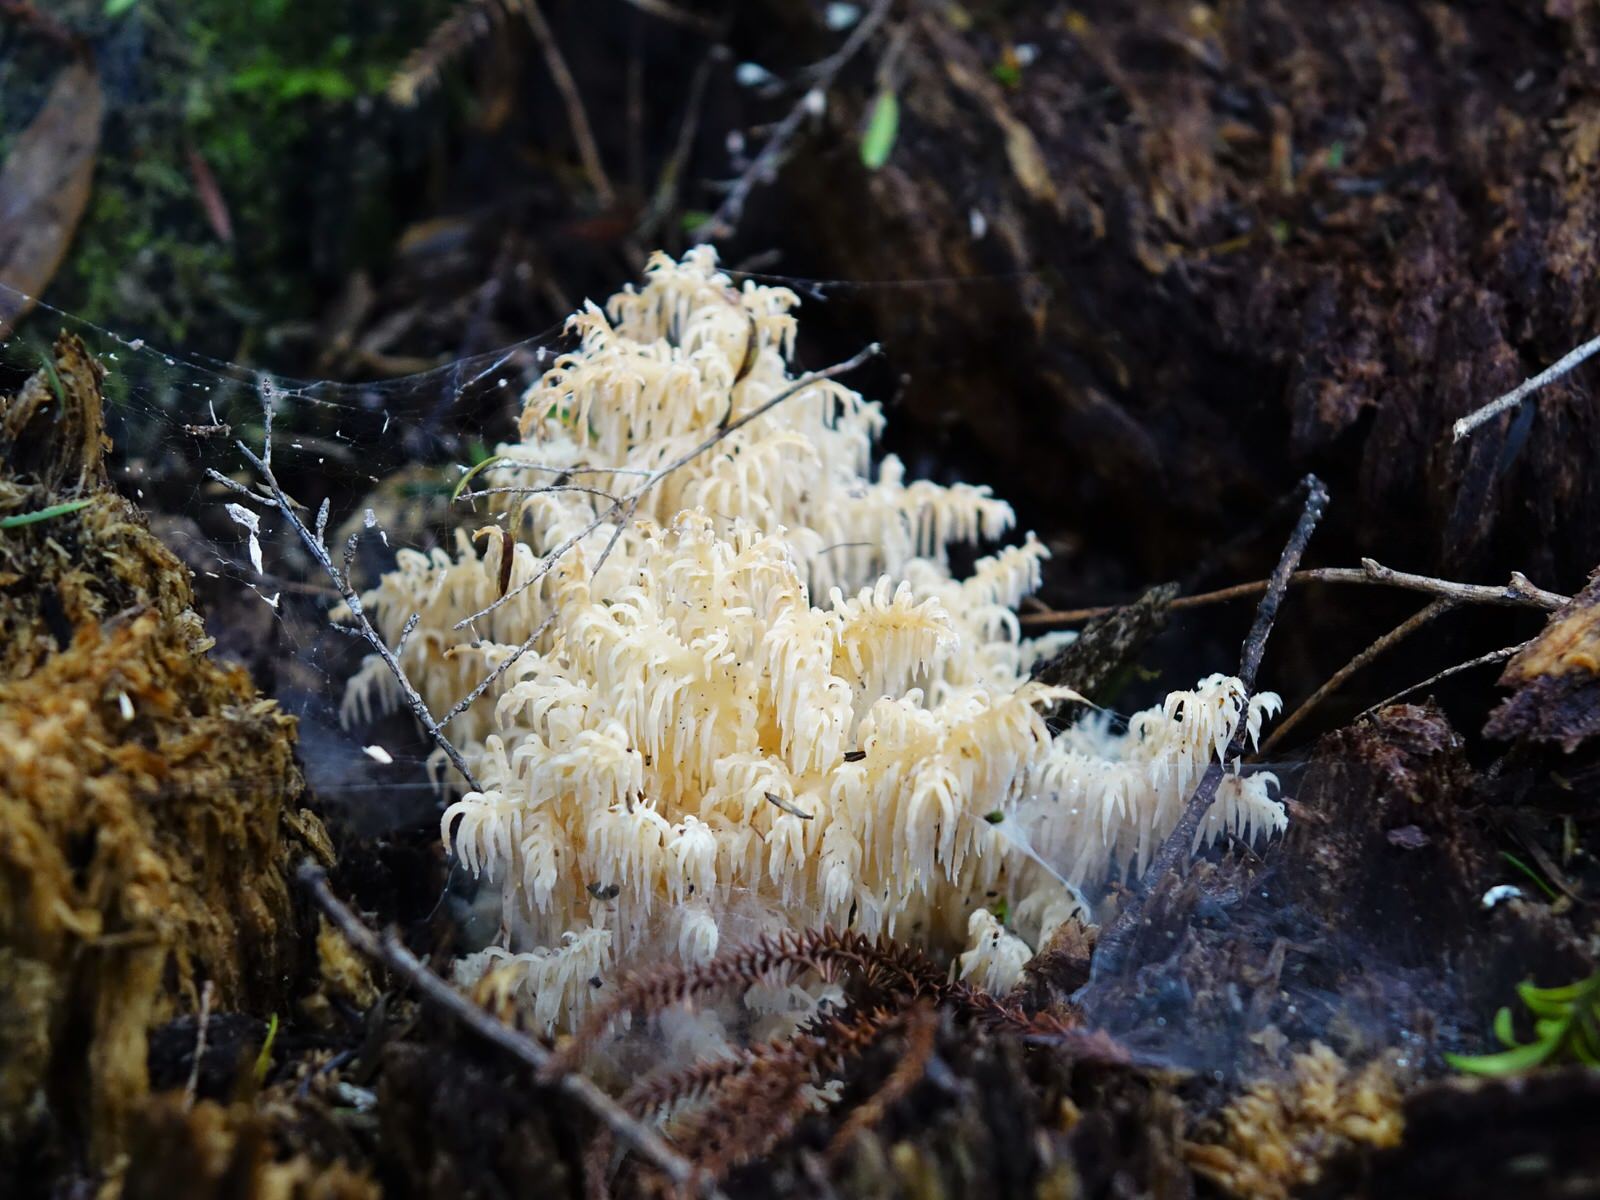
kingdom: Fungi
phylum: Basidiomycota
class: Agaricomycetes
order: Russulales
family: Hericiaceae
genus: Hericium
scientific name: Hericium novae-zealandiae
